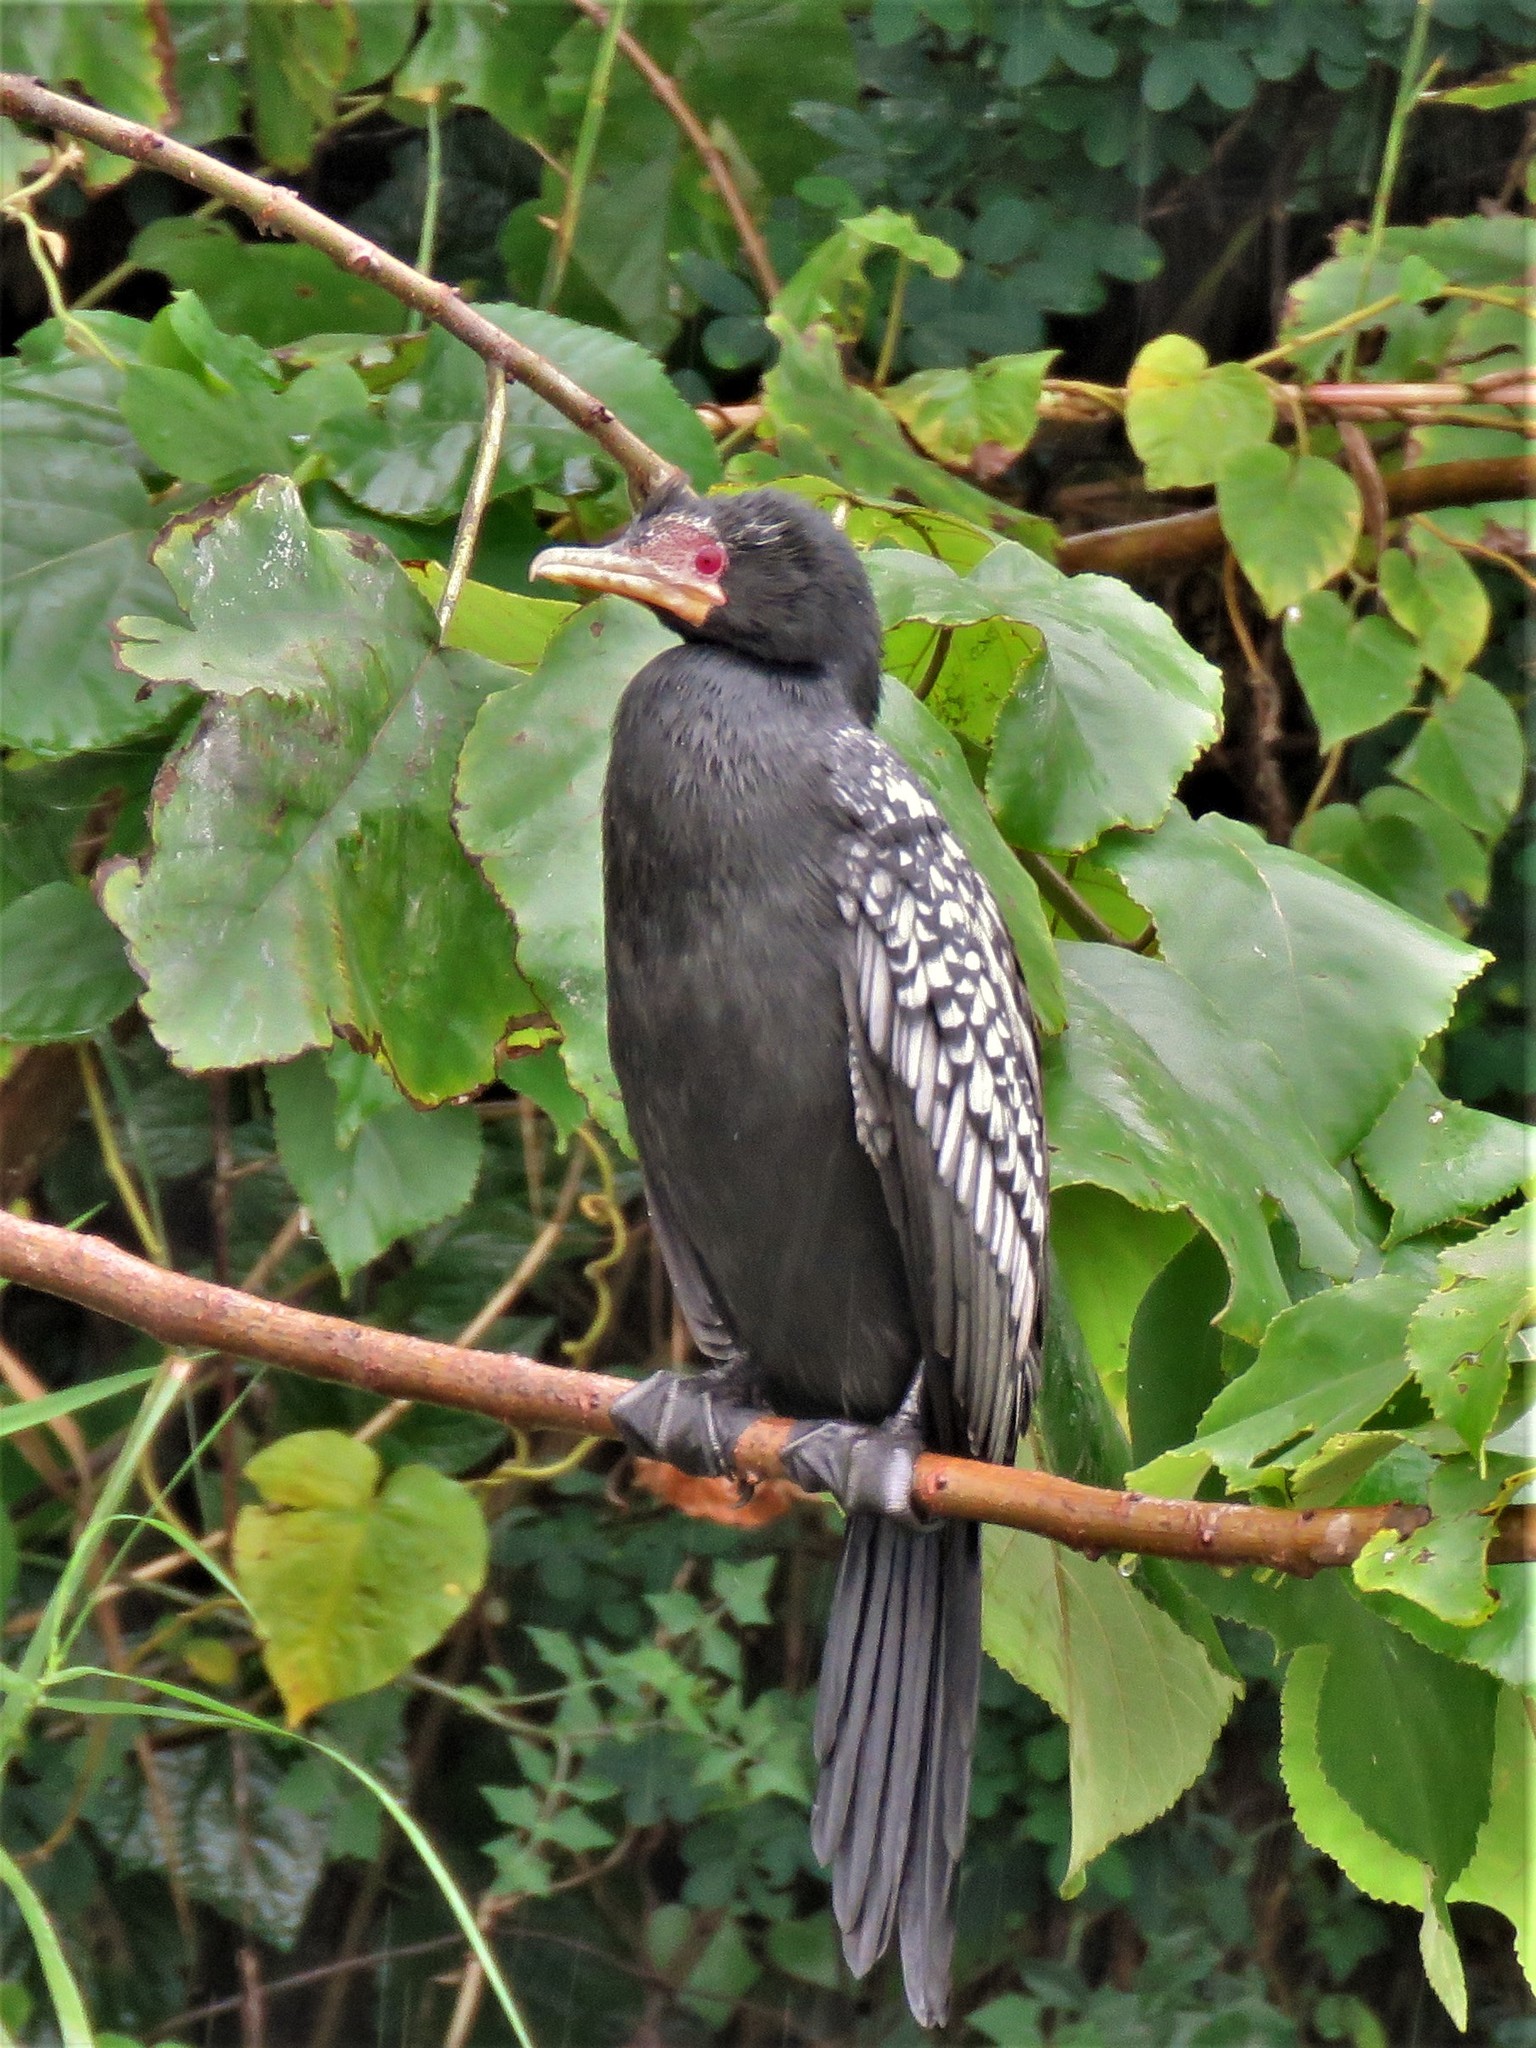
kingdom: Animalia
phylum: Chordata
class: Aves
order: Suliformes
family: Phalacrocoracidae
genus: Microcarbo
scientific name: Microcarbo africanus
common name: Long-tailed cormorant
